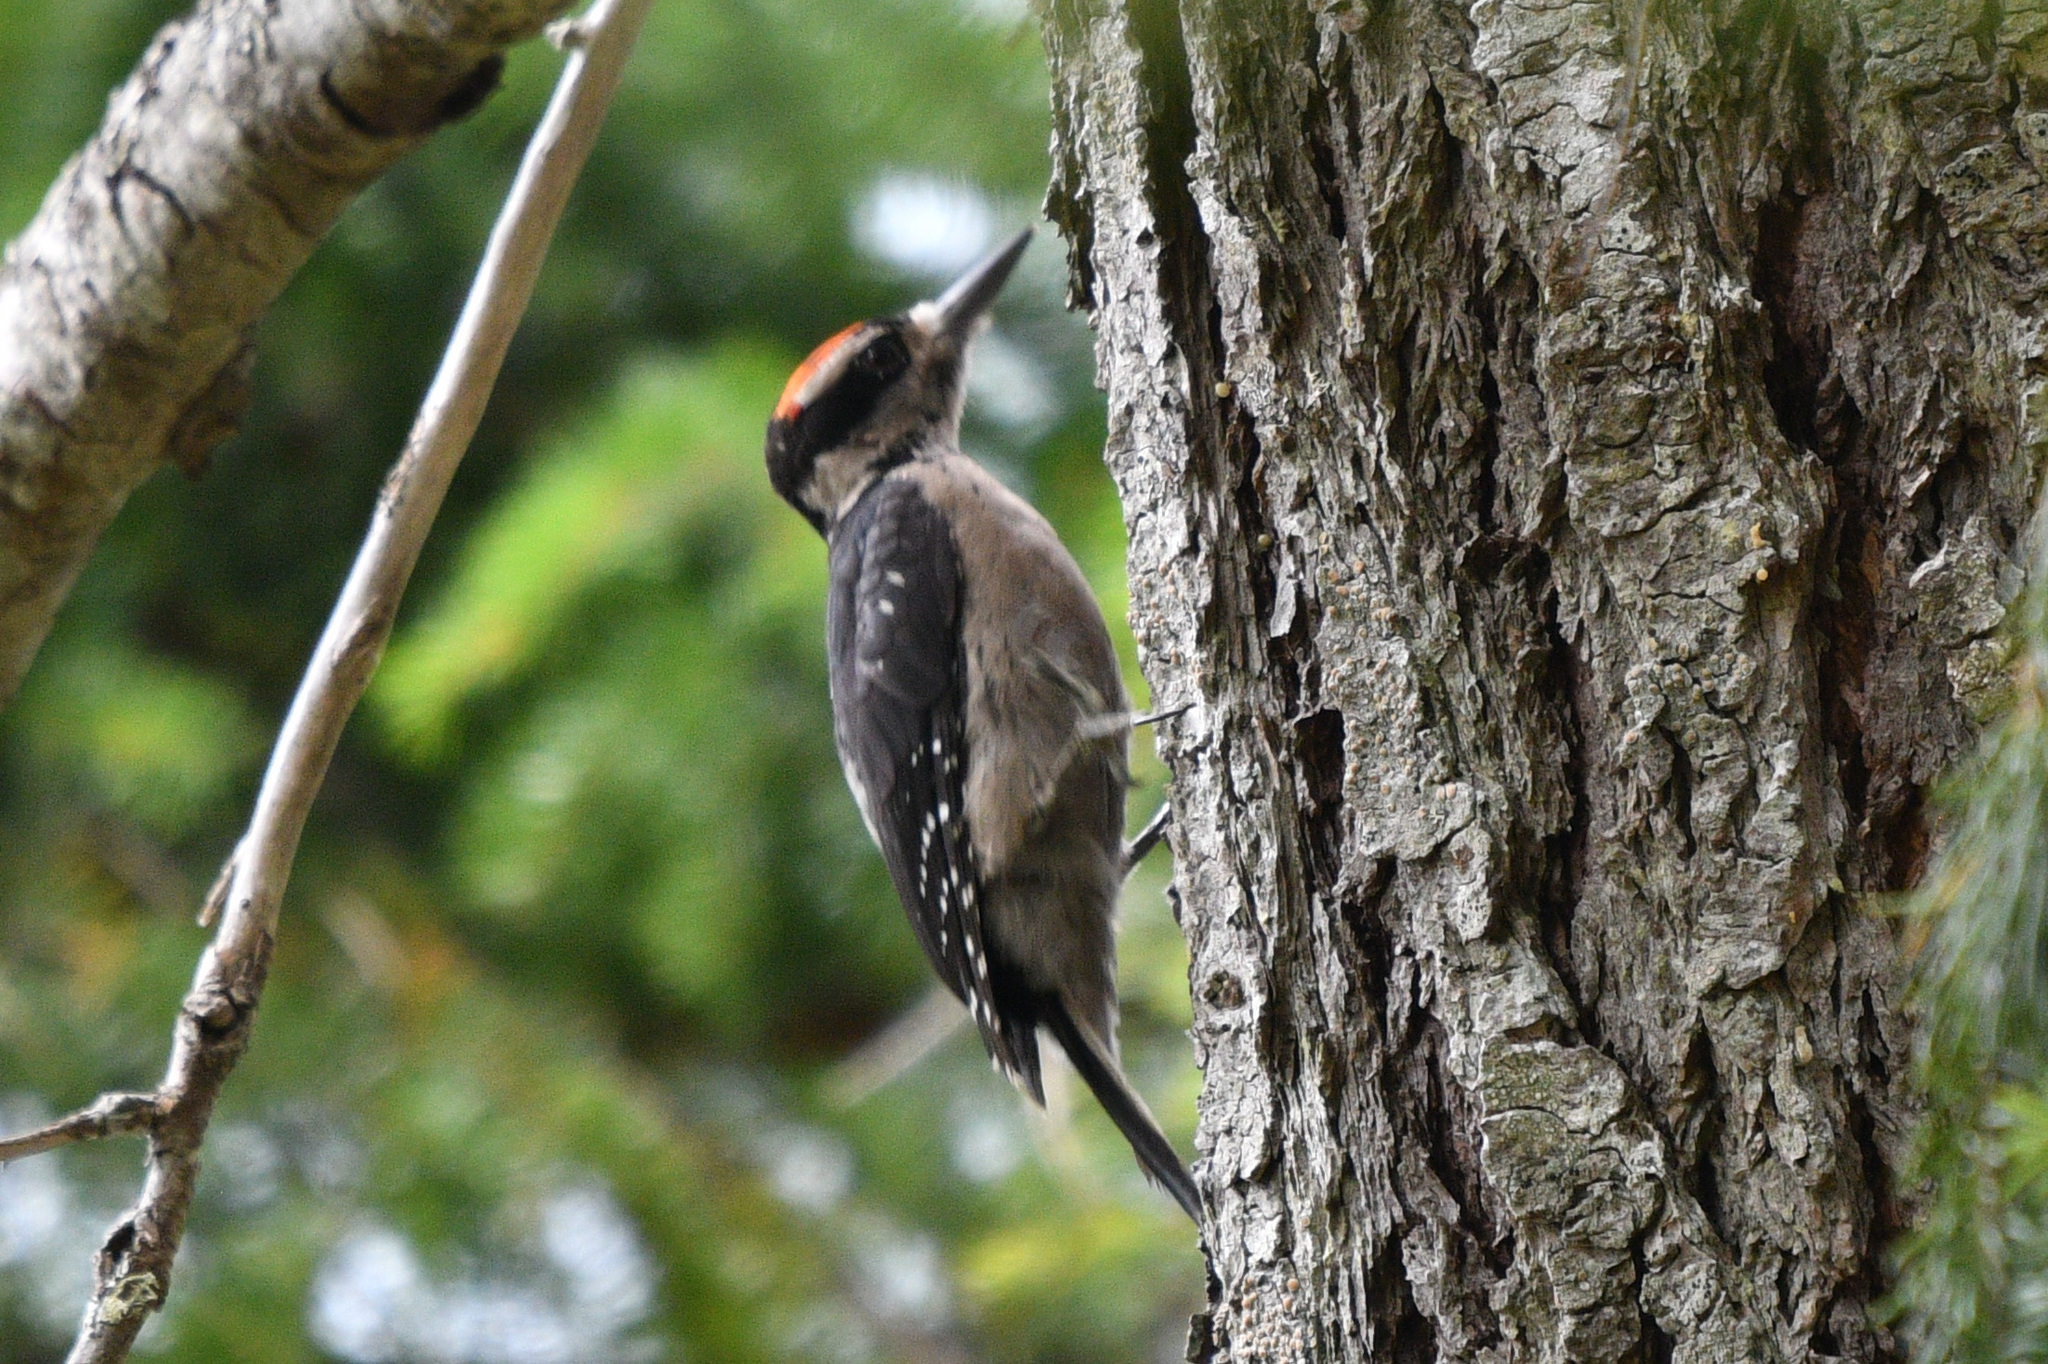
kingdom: Animalia
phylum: Chordata
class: Aves
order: Piciformes
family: Picidae
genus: Leuconotopicus
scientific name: Leuconotopicus villosus
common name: Hairy woodpecker
